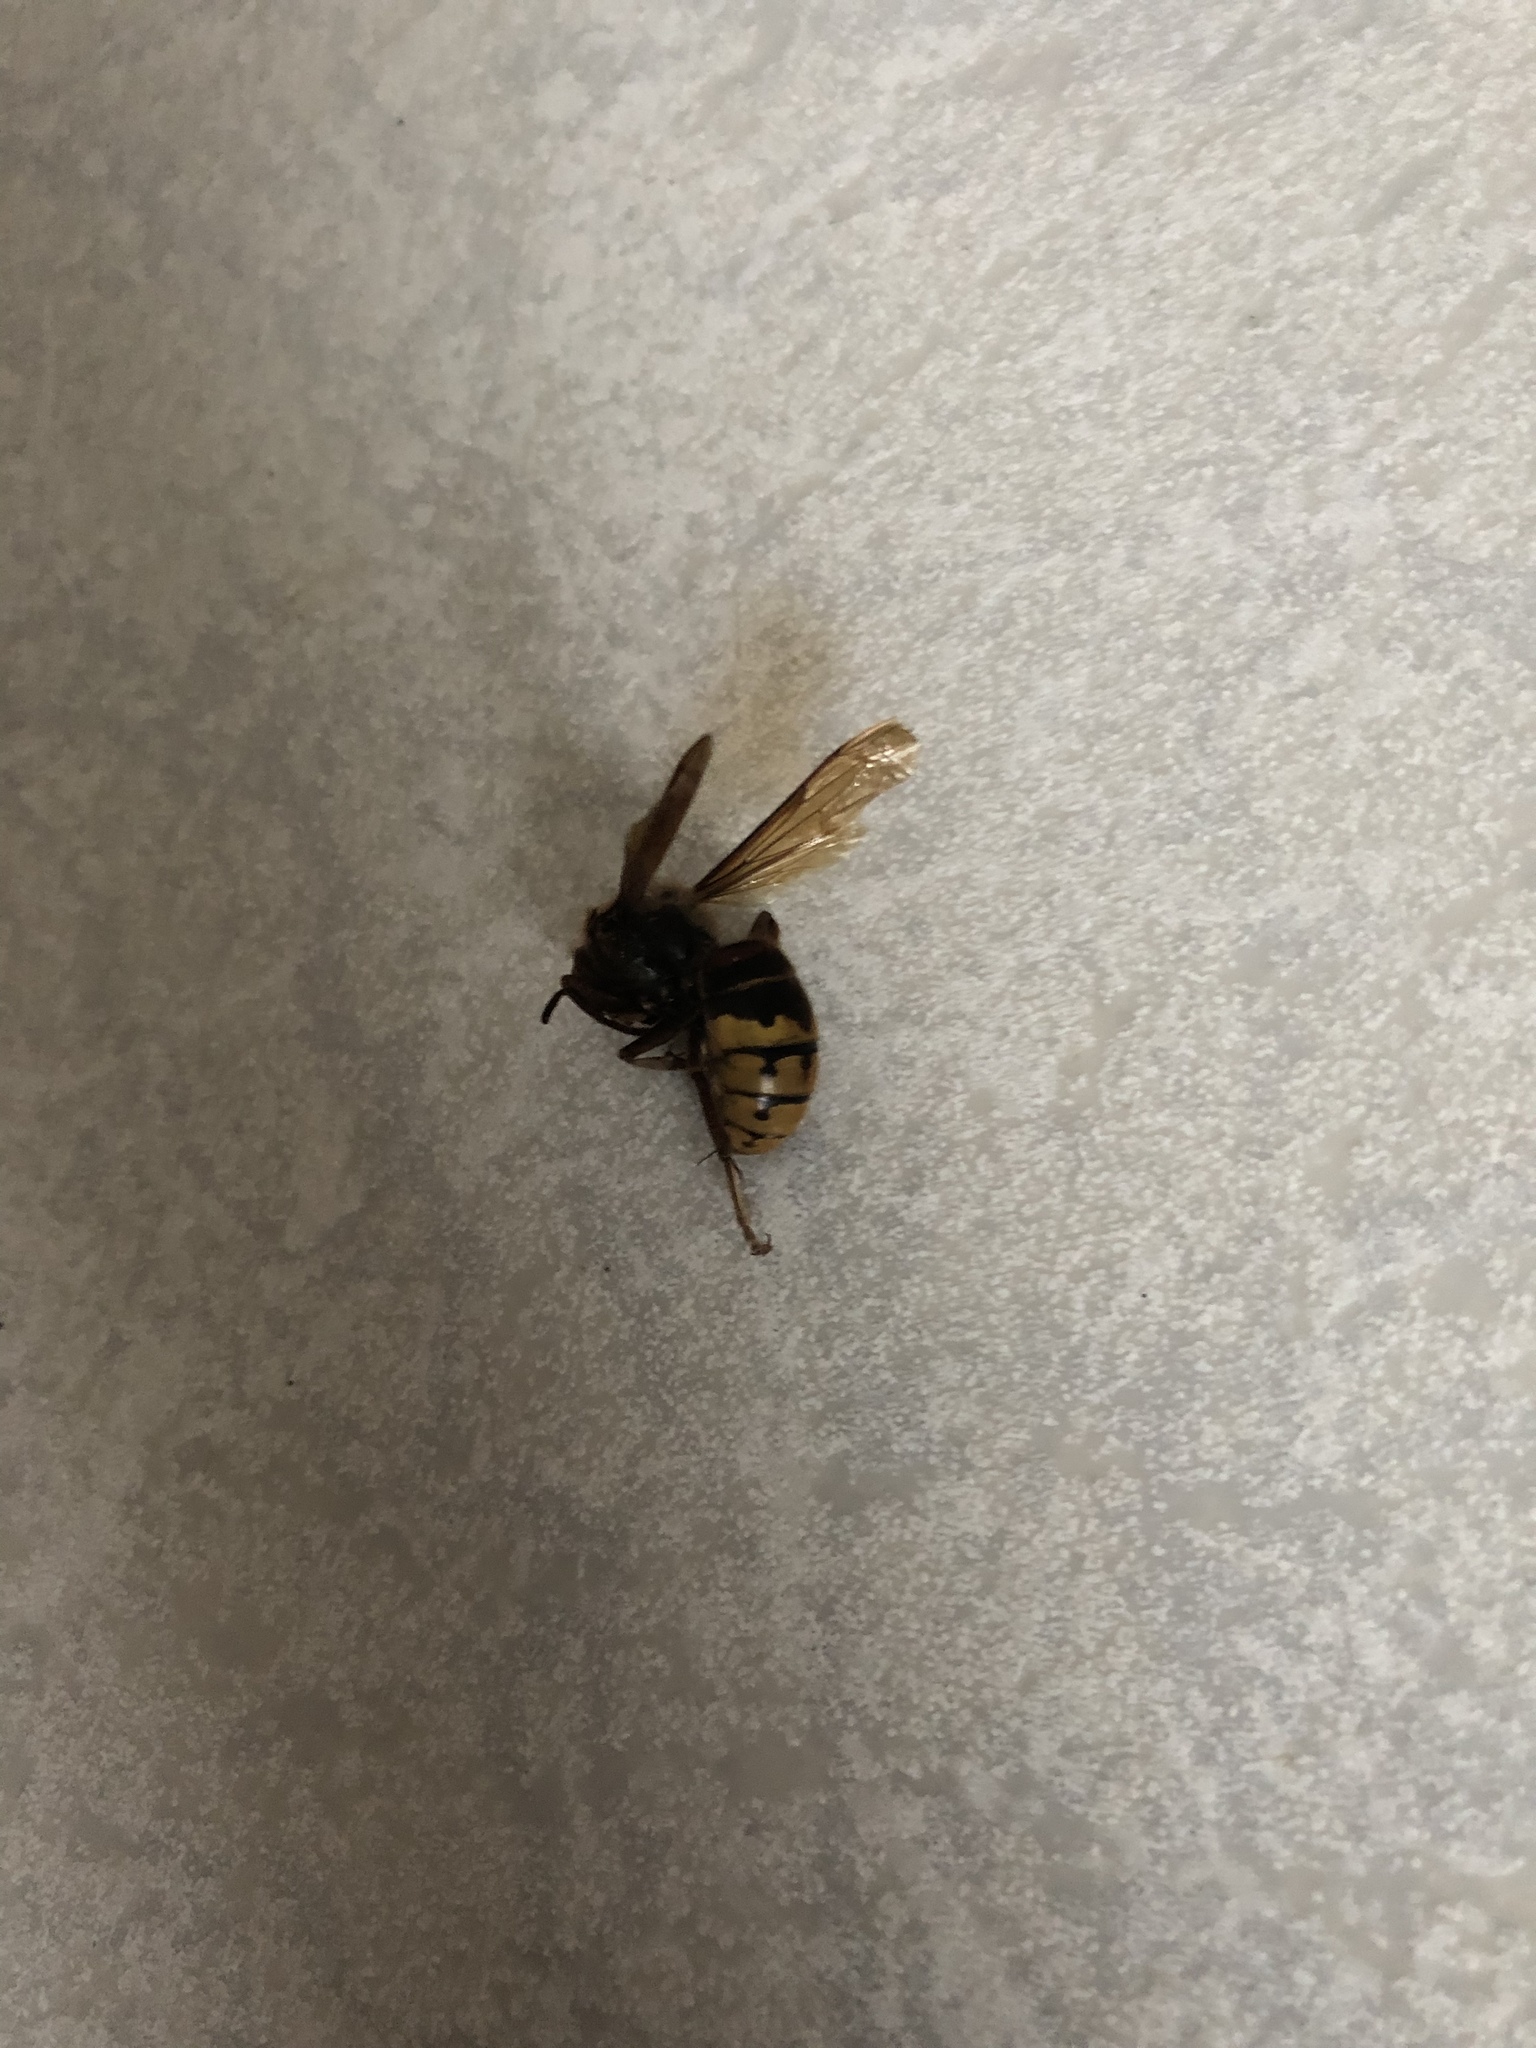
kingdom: Animalia
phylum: Arthropoda
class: Insecta
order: Hymenoptera
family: Vespidae
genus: Vespa
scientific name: Vespa crabro
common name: Hornet
